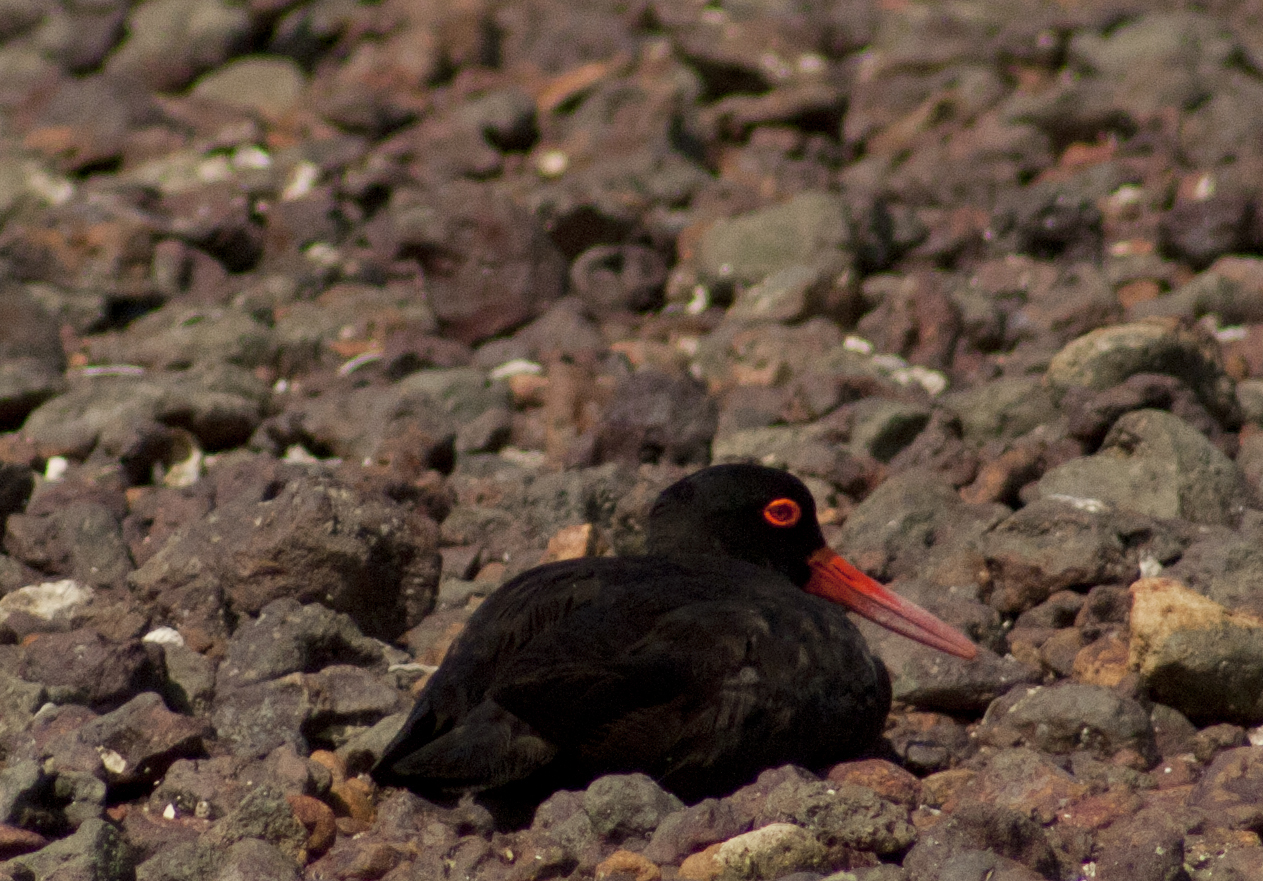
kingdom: Animalia
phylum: Chordata
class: Aves
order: Charadriiformes
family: Haematopodidae
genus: Haematopus
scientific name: Haematopus fuliginosus
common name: Sooty oystercatcher
